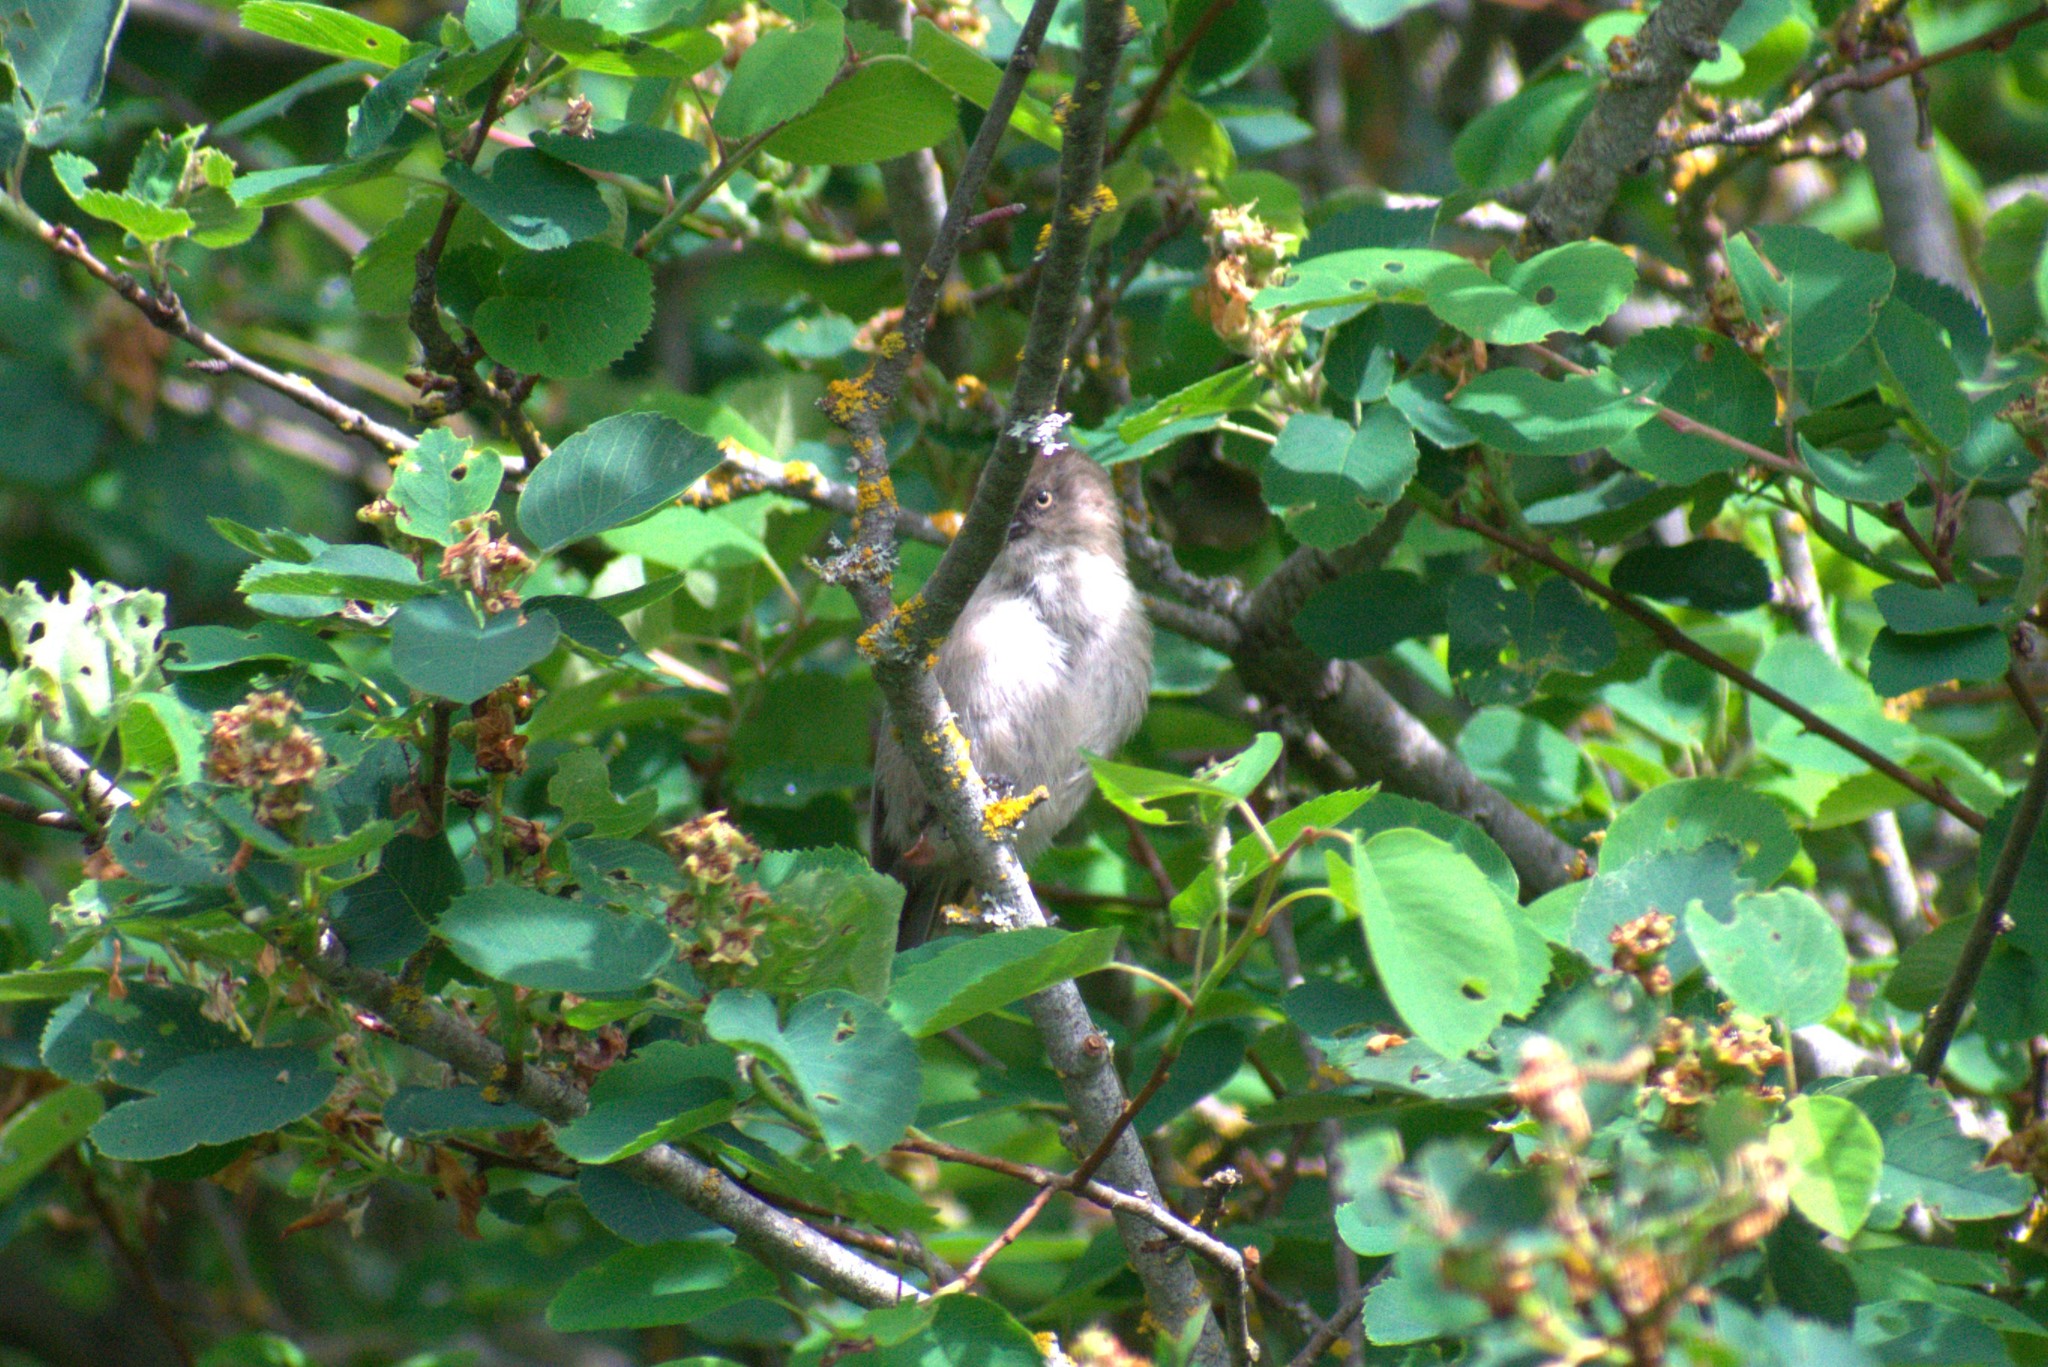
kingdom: Animalia
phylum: Chordata
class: Aves
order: Passeriformes
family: Aegithalidae
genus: Psaltriparus
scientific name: Psaltriparus minimus
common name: American bushtit
